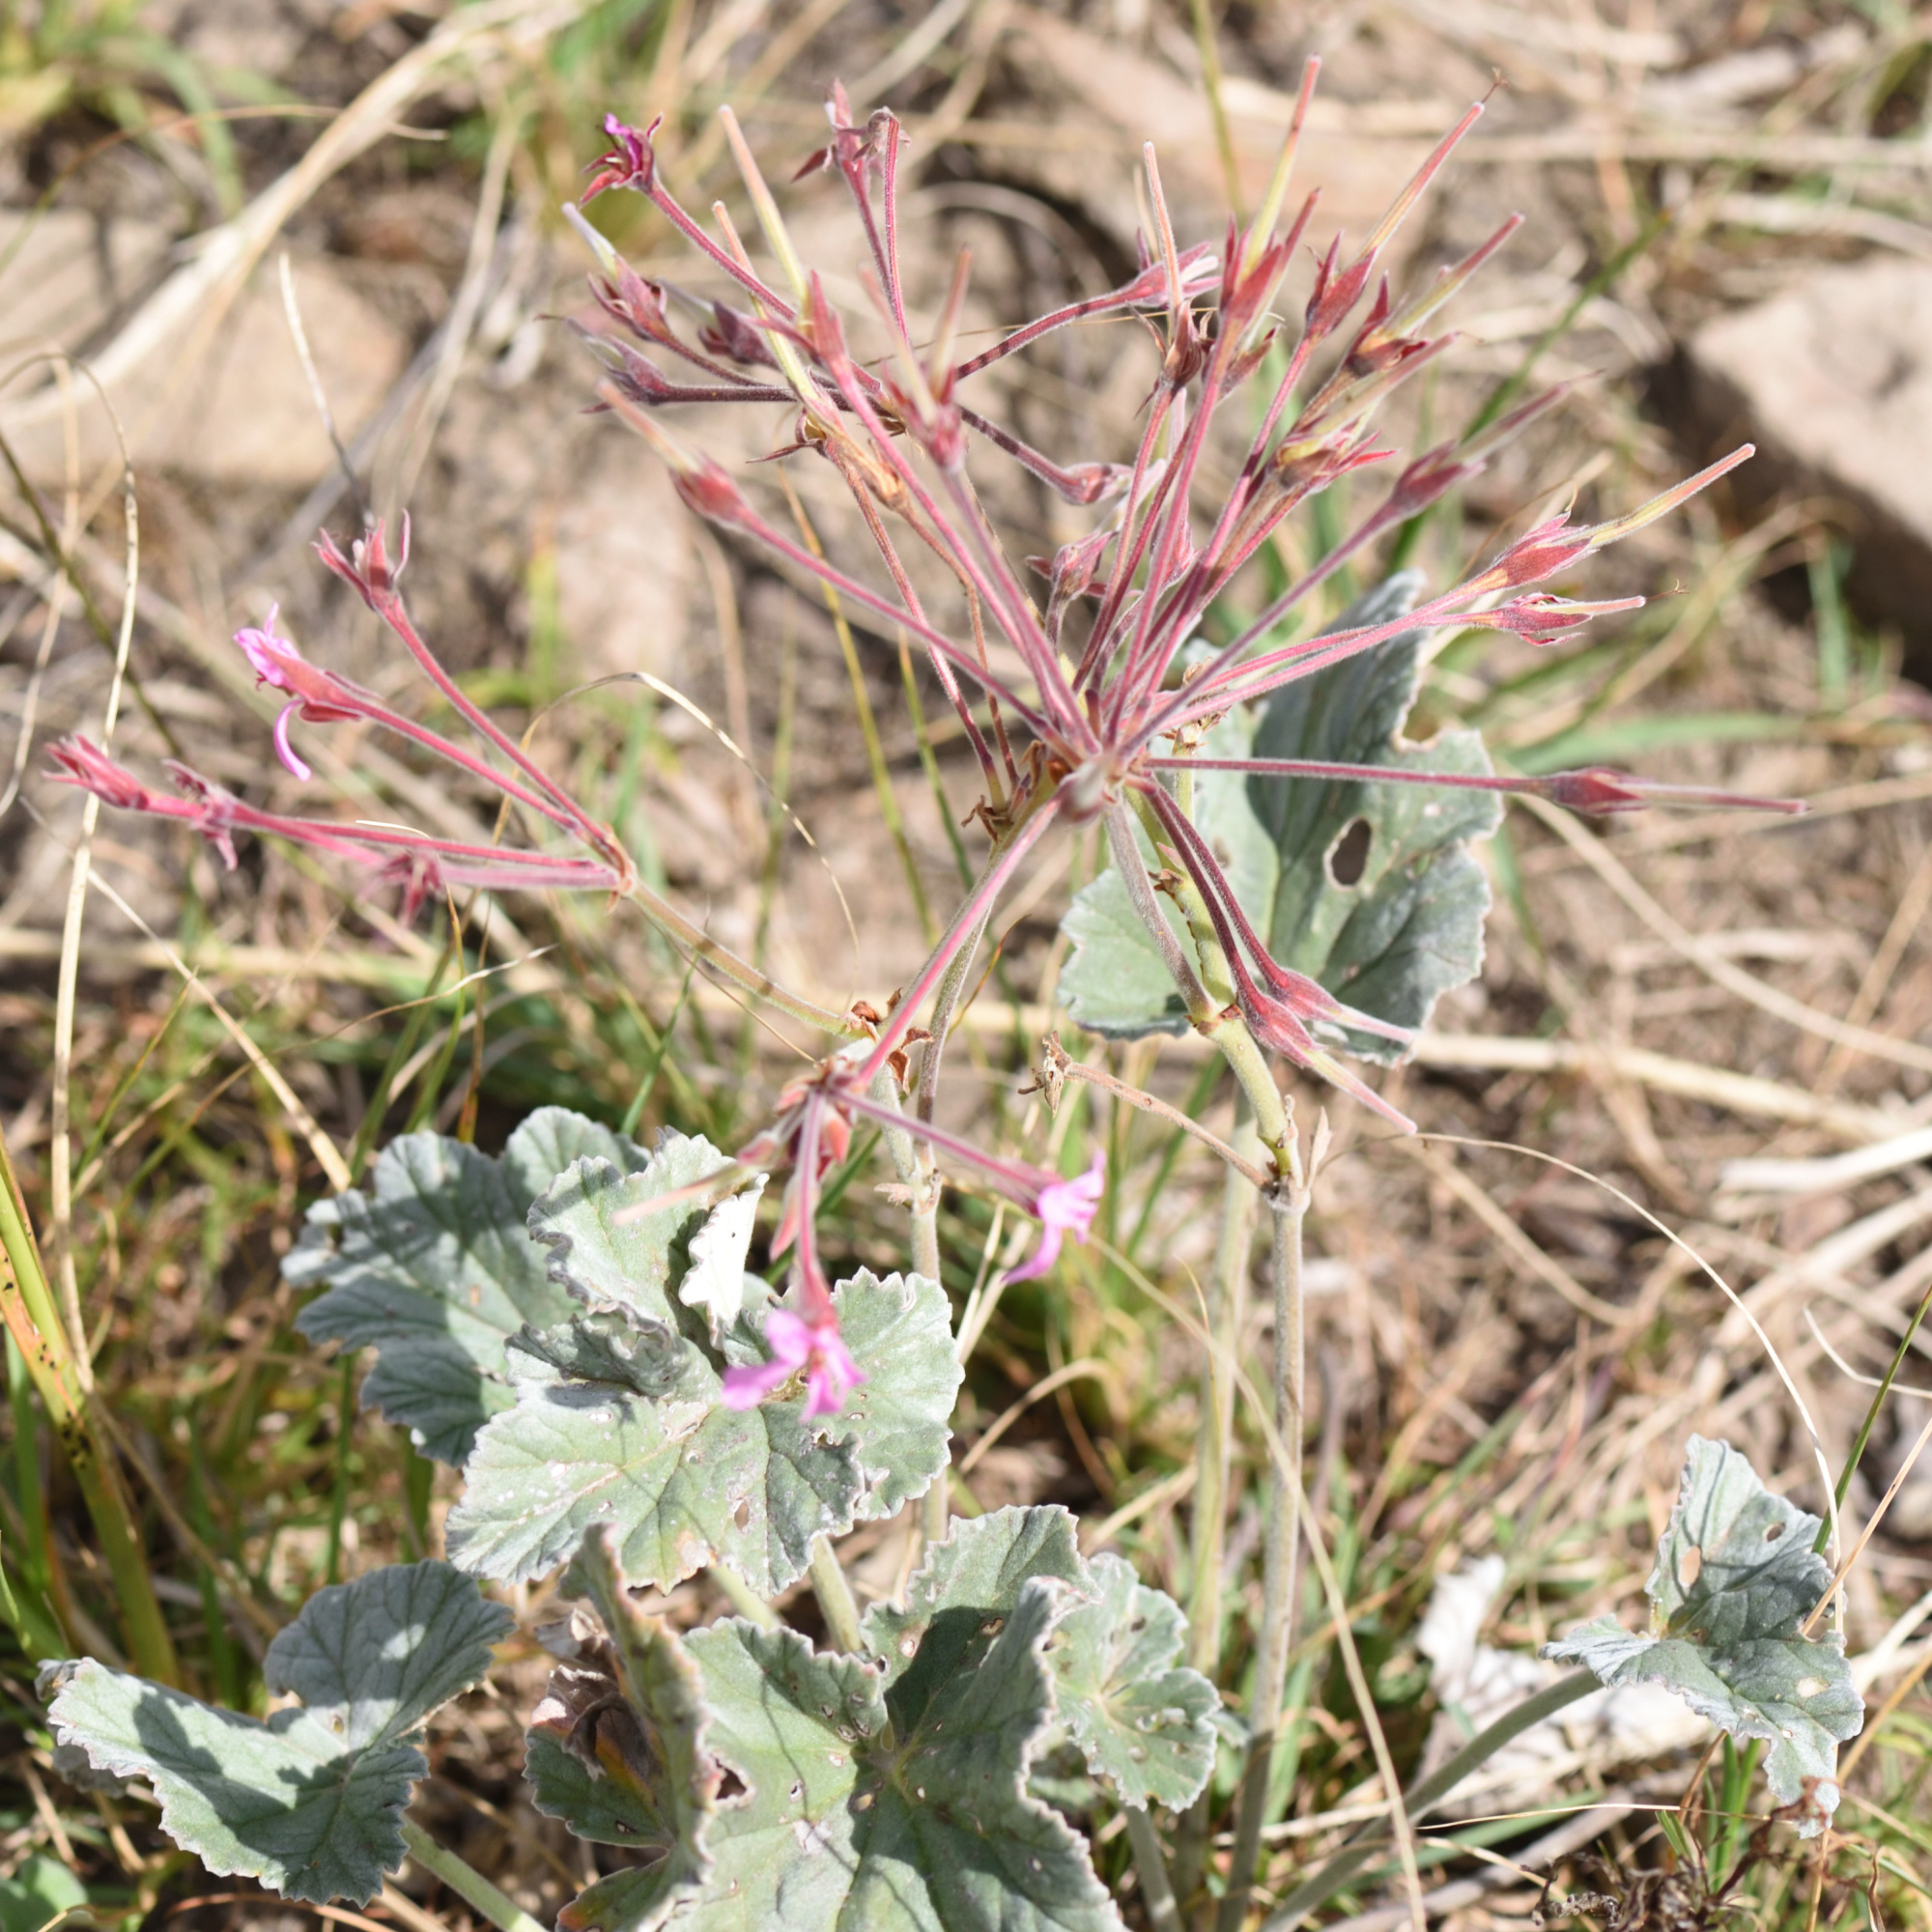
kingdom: Plantae
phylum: Tracheophyta
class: Magnoliopsida
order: Geraniales
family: Geraniaceae
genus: Pelargonium
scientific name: Pelargonium reniforme
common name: Kidney-leaf pelargonium
